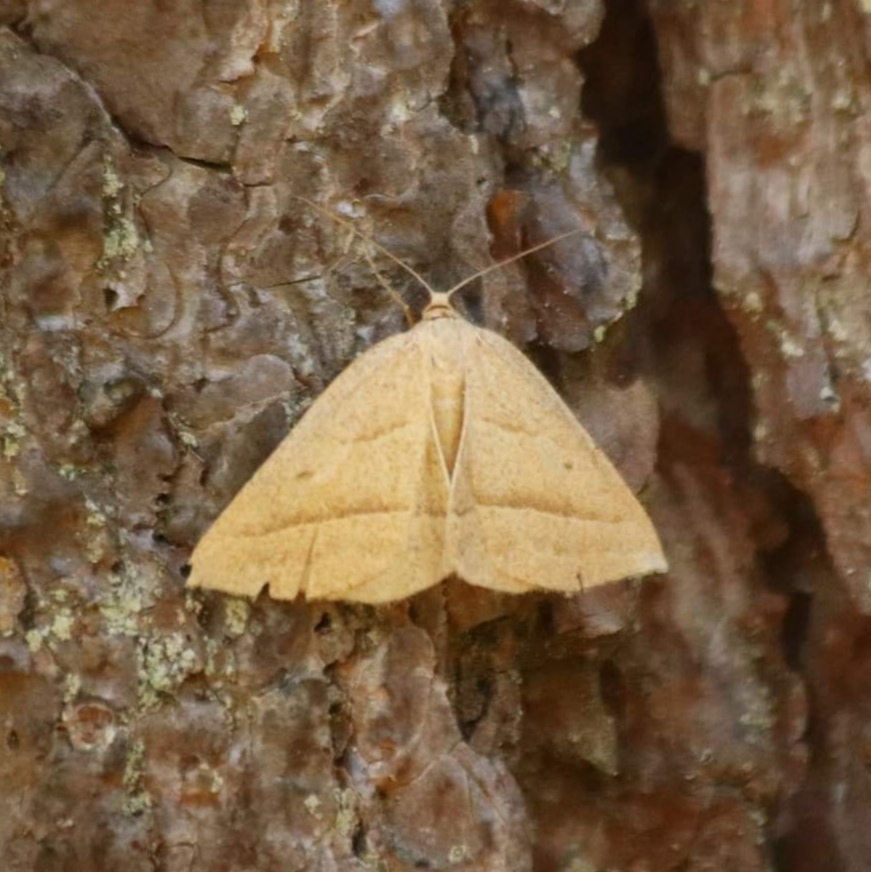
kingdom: Animalia
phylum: Arthropoda
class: Insecta
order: Lepidoptera
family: Pterophoridae
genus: Pterophorus
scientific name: Pterophorus Petrophora chlorosata
